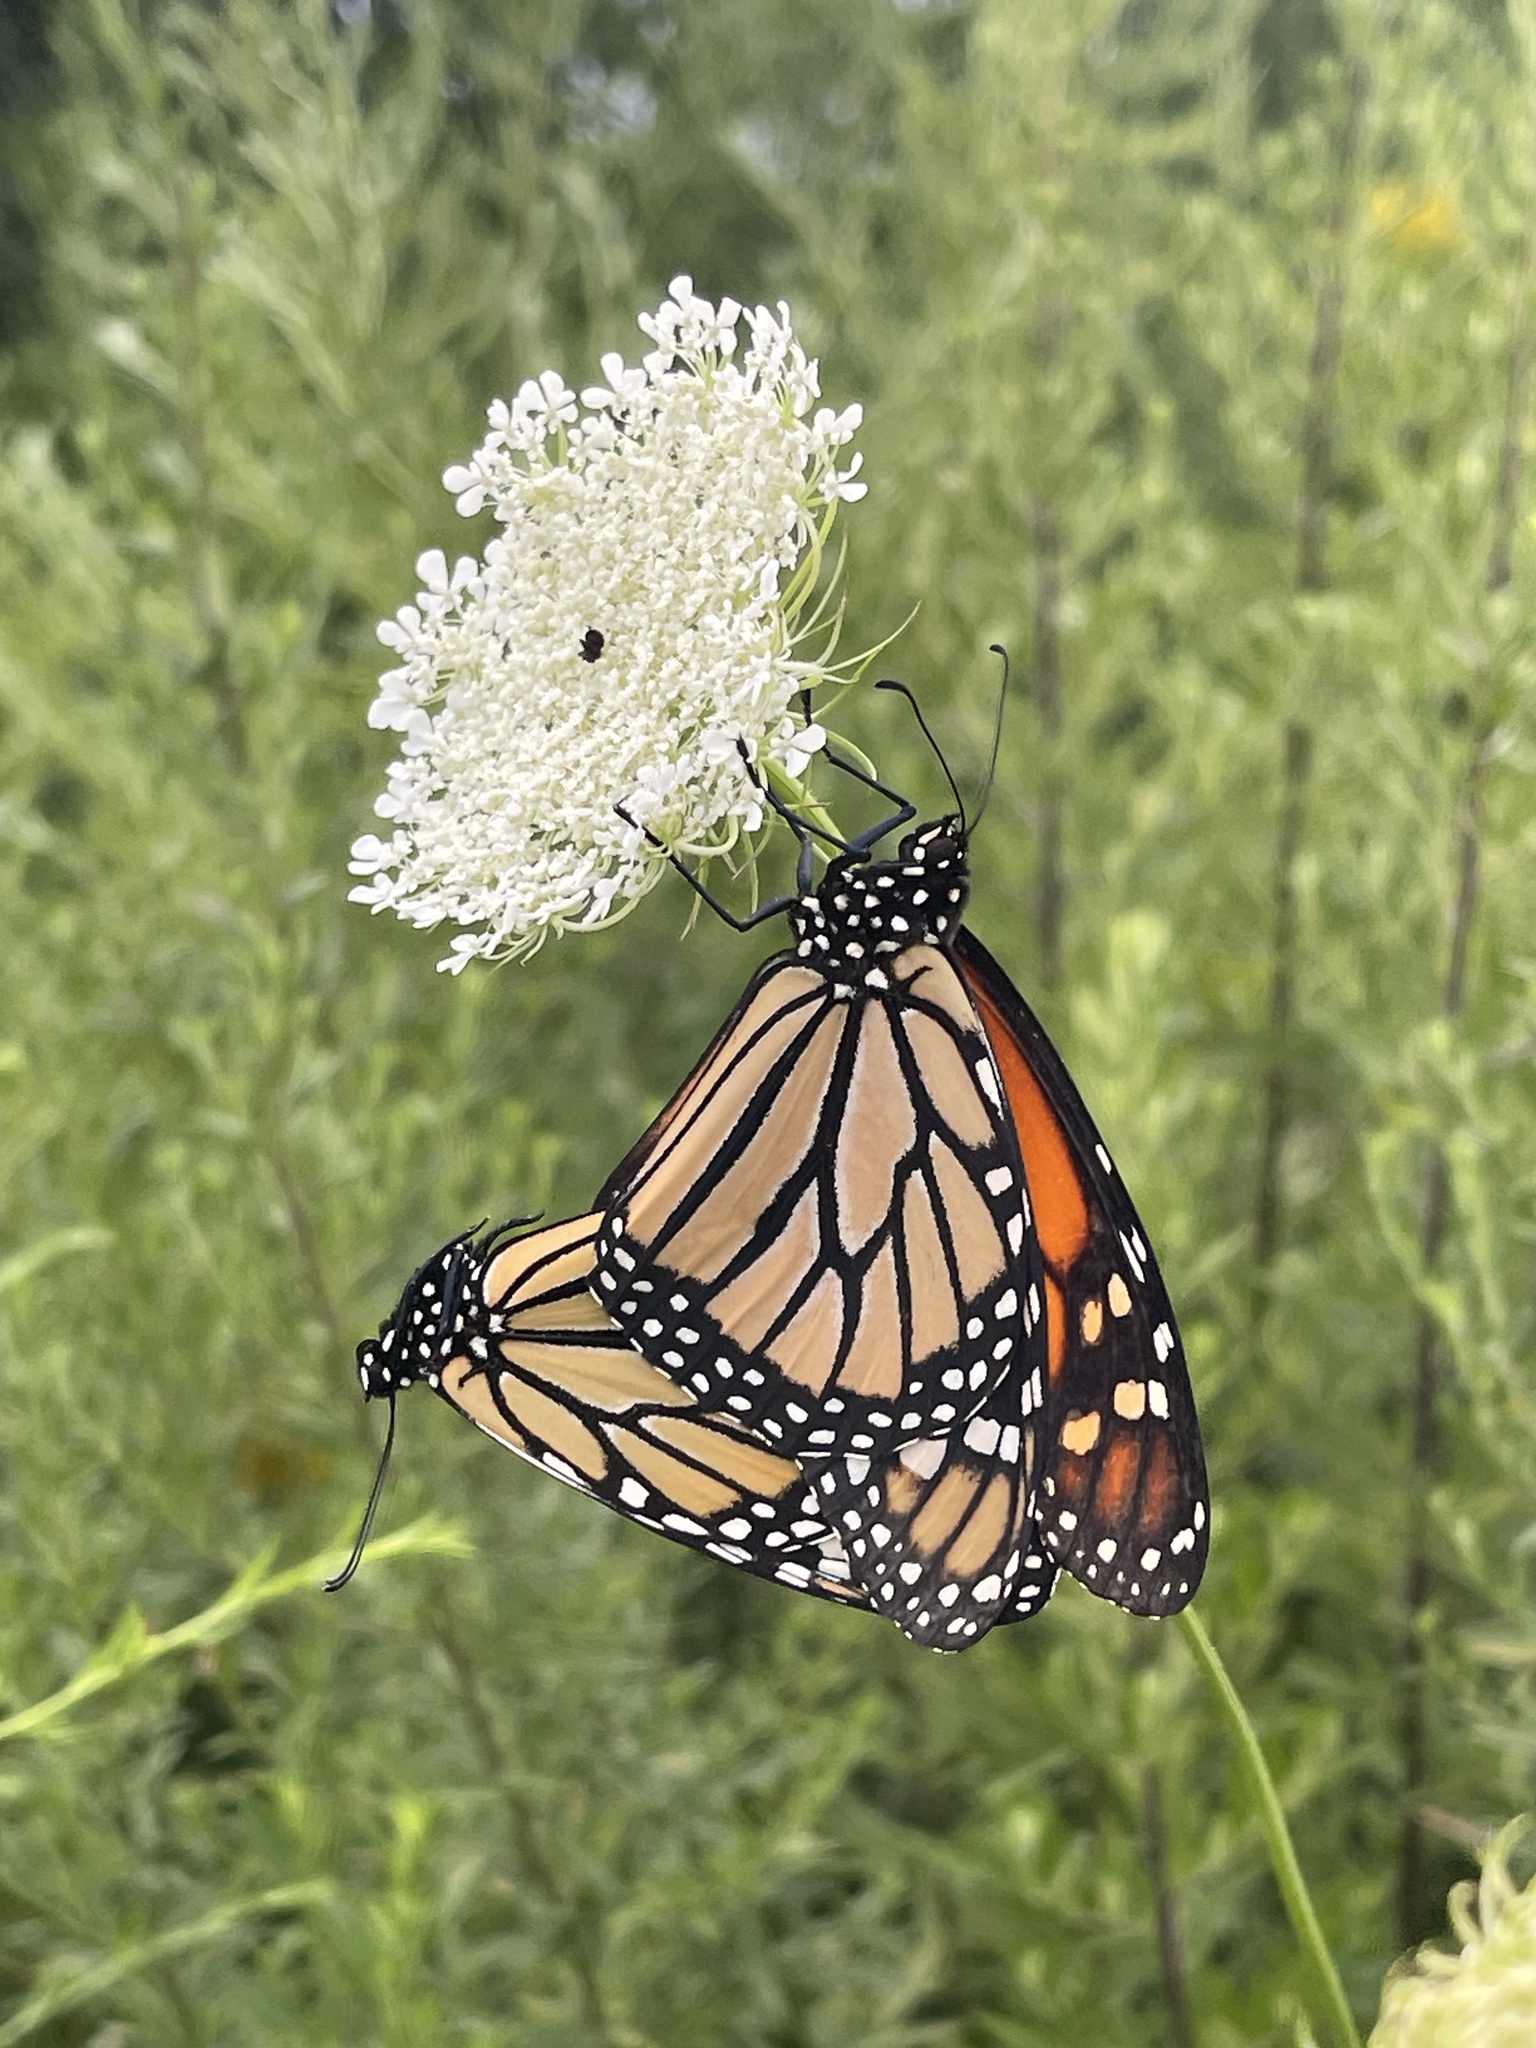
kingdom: Animalia
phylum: Arthropoda
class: Insecta
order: Lepidoptera
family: Nymphalidae
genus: Danaus
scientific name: Danaus plexippus
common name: Monarch
